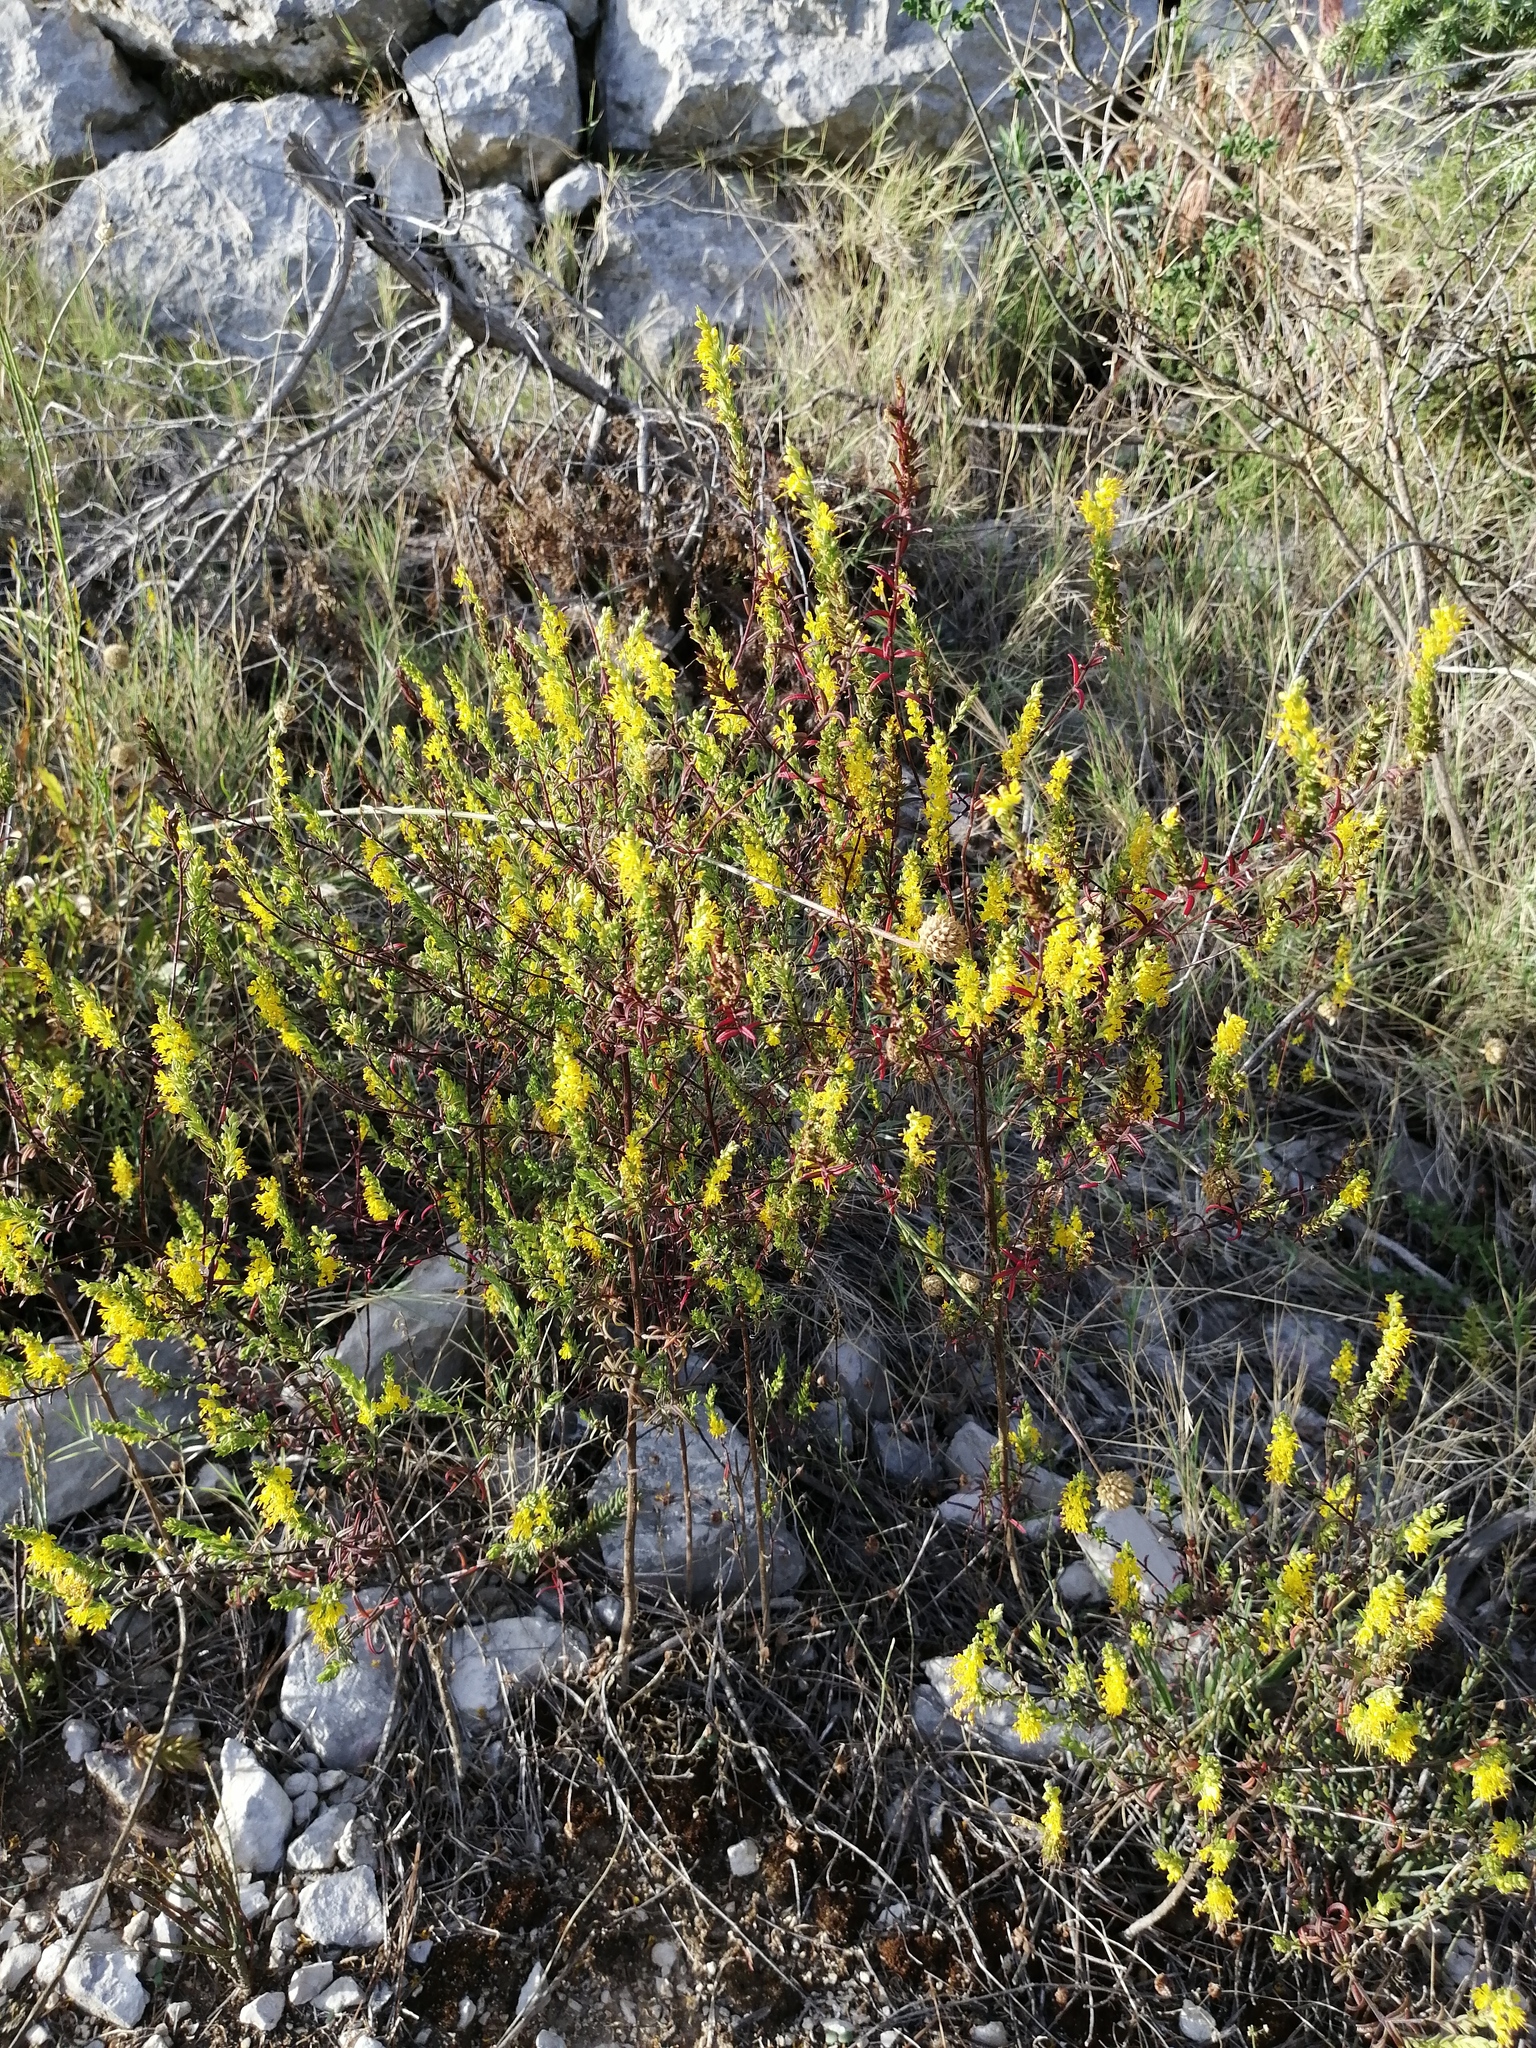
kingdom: Plantae
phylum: Tracheophyta
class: Magnoliopsida
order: Lamiales
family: Orobanchaceae
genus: Odontites
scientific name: Odontites luteus
